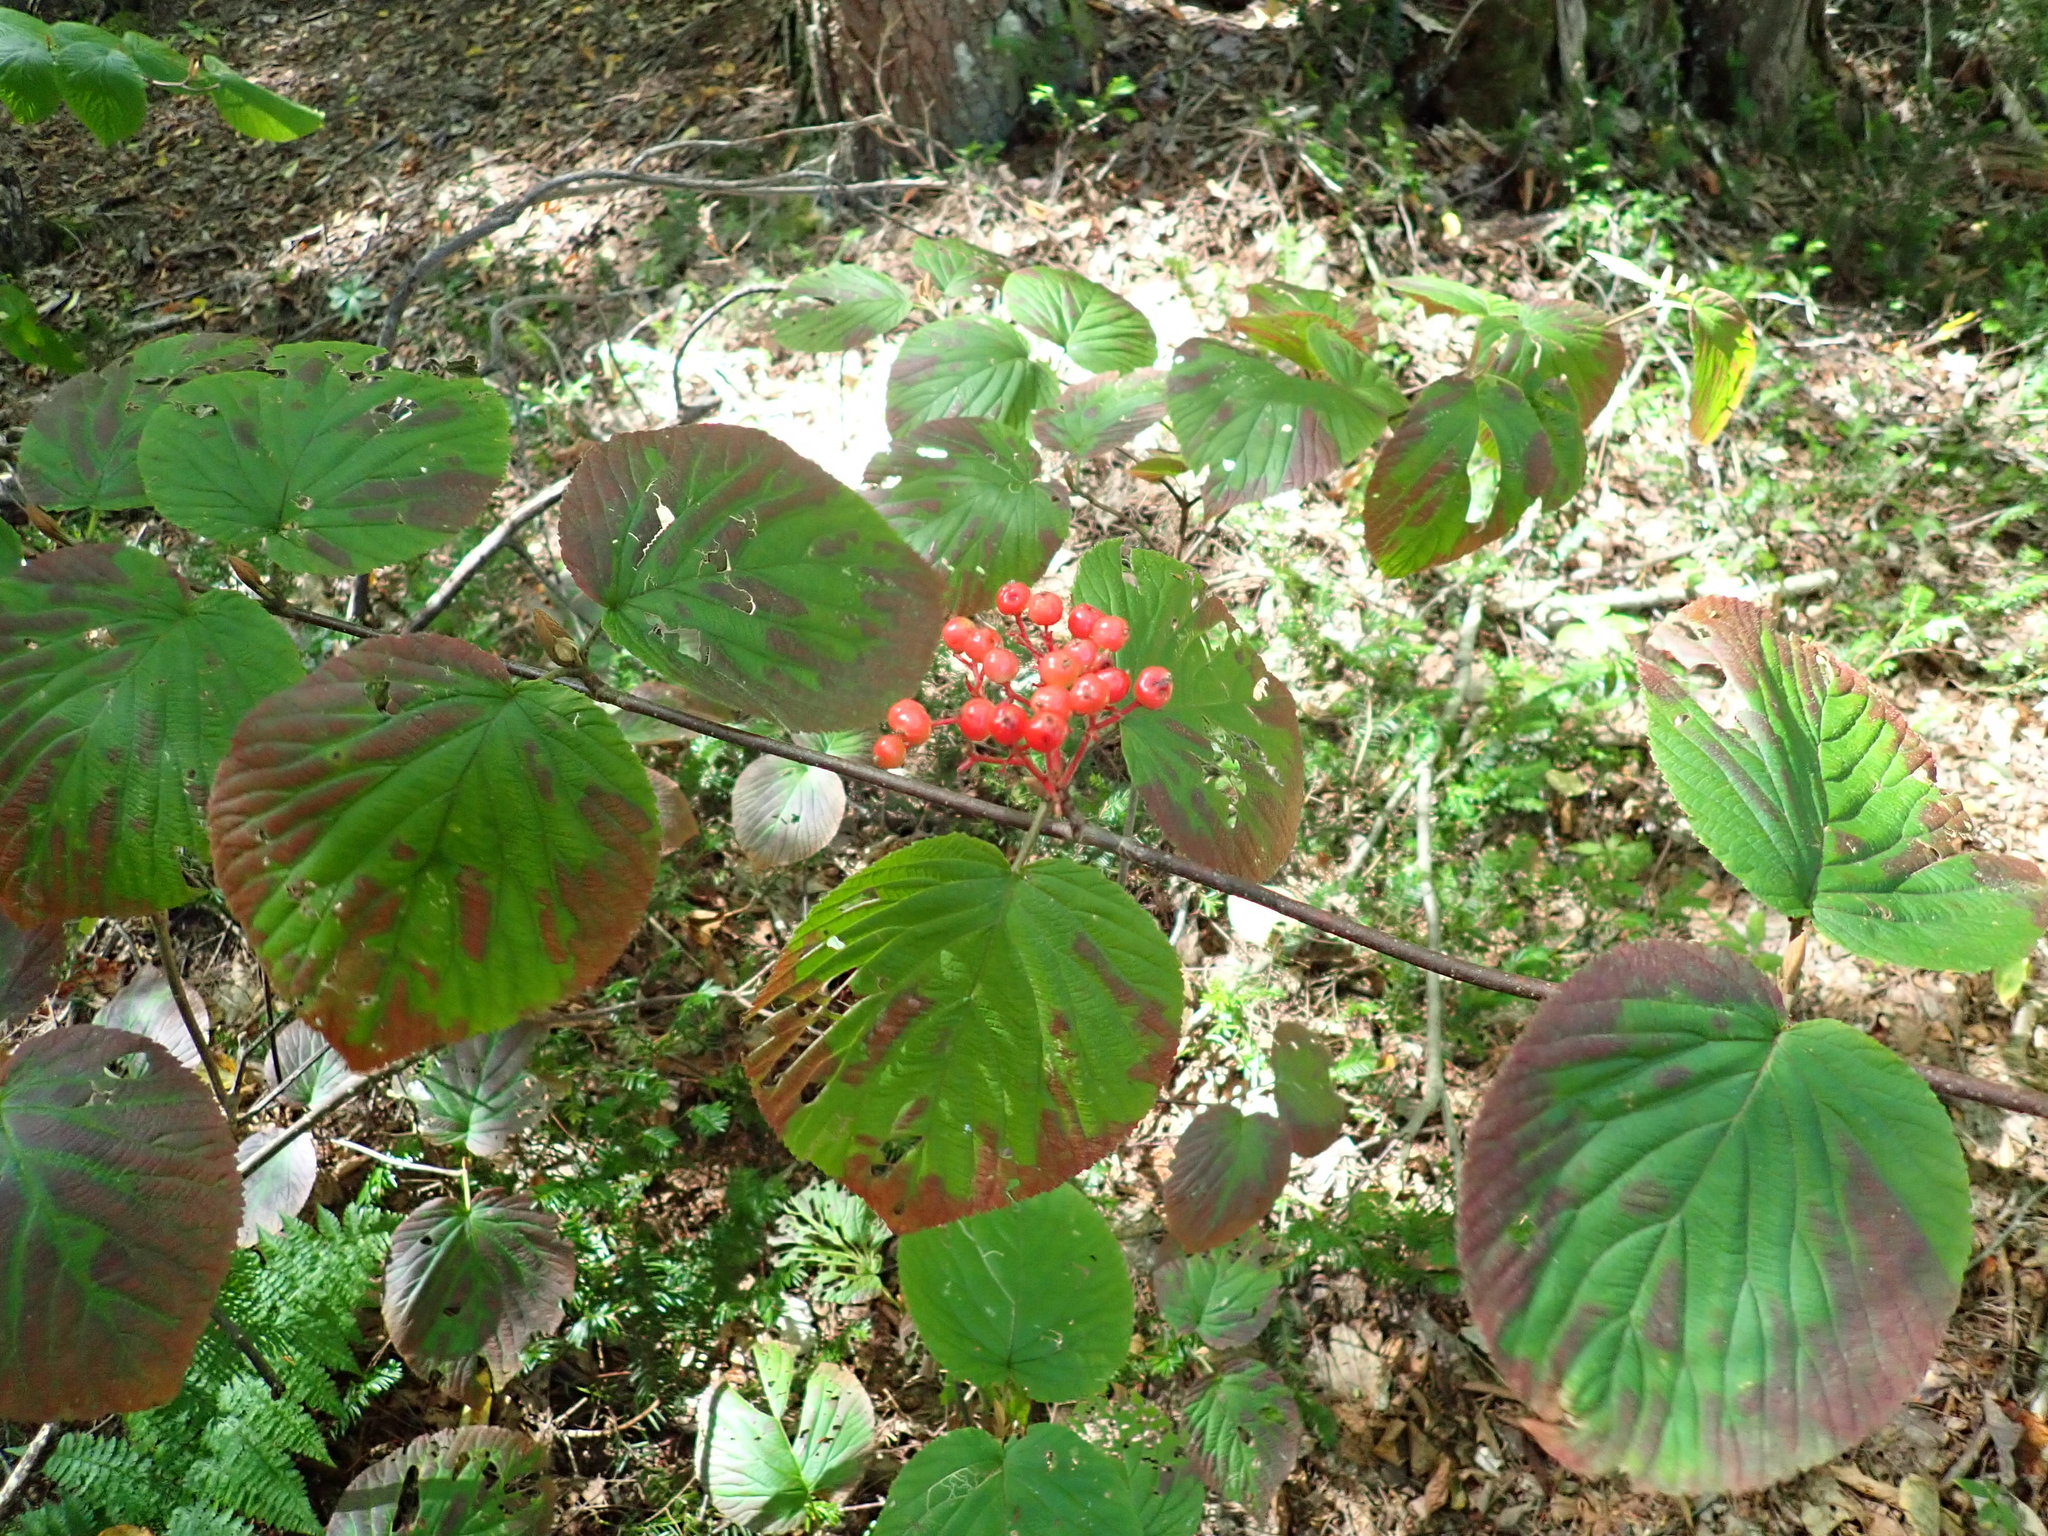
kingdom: Plantae
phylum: Tracheophyta
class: Magnoliopsida
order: Dipsacales
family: Viburnaceae
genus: Viburnum
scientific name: Viburnum lantanoides
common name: Hobblebush
